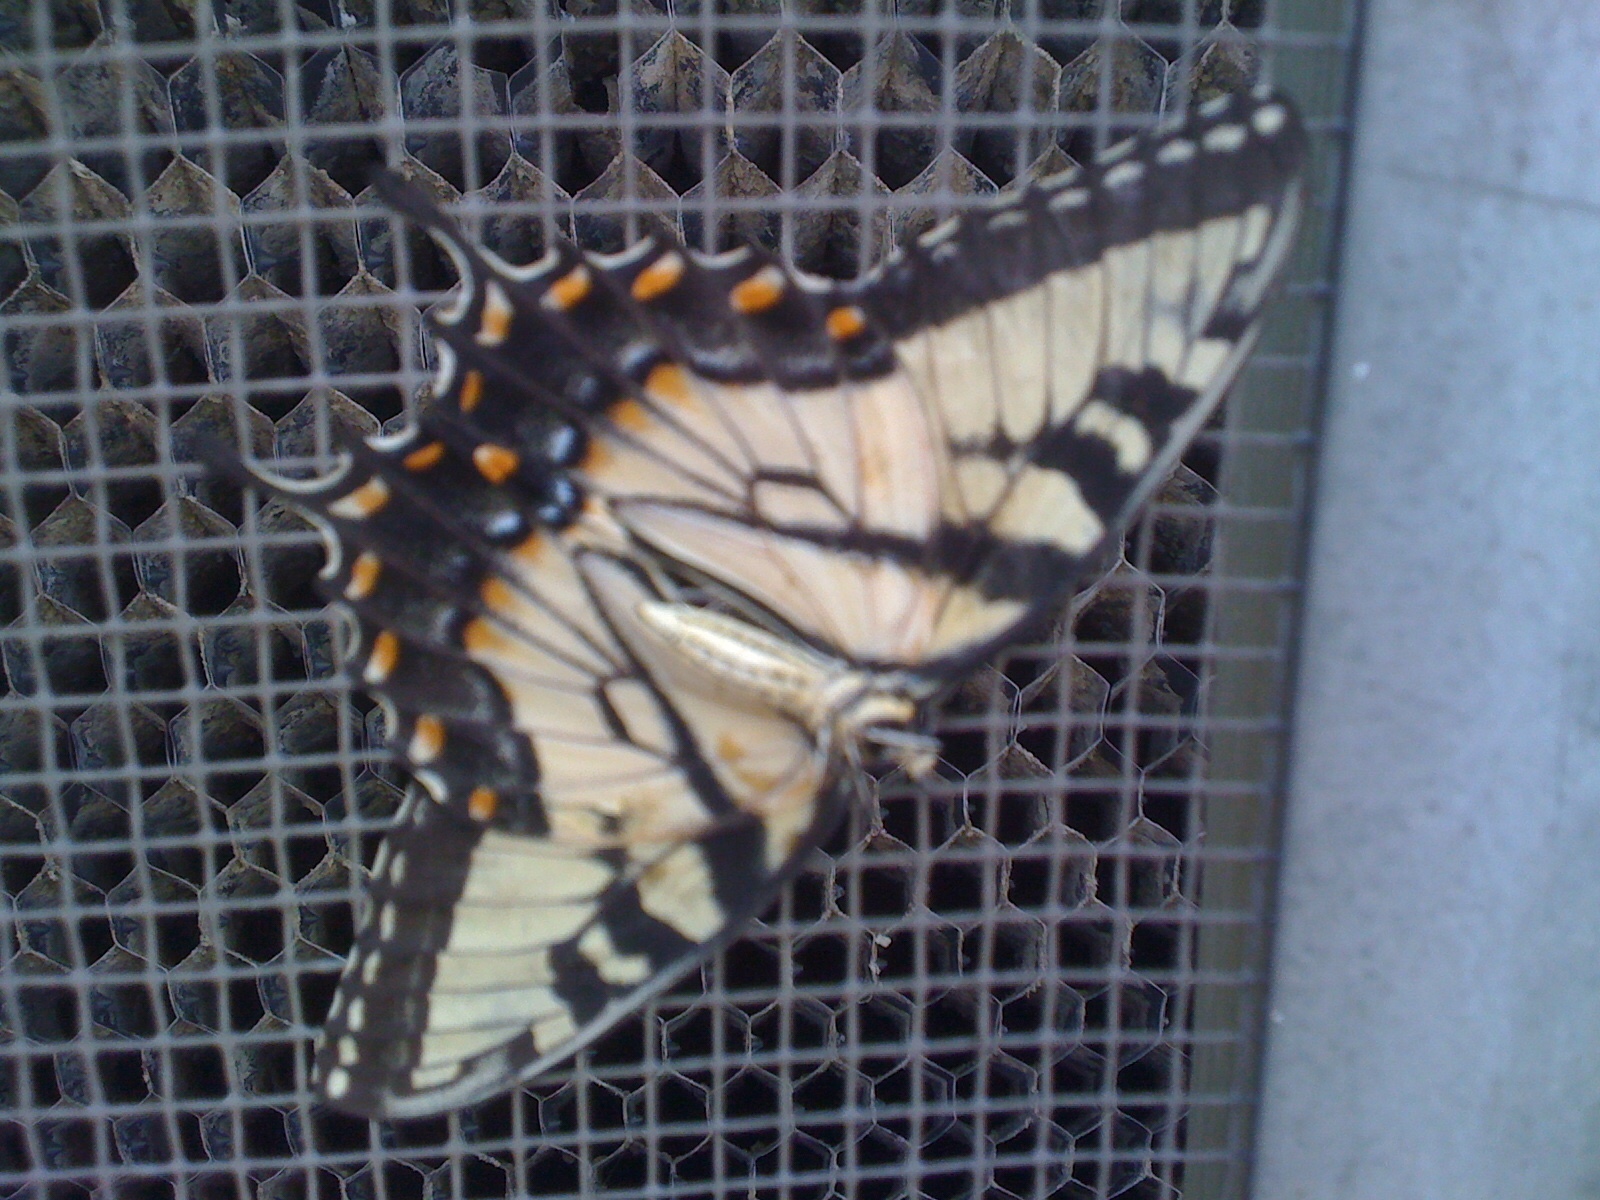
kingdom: Animalia
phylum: Arthropoda
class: Insecta
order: Lepidoptera
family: Papilionidae
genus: Papilio
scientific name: Papilio glaucus
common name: Tiger swallowtail
